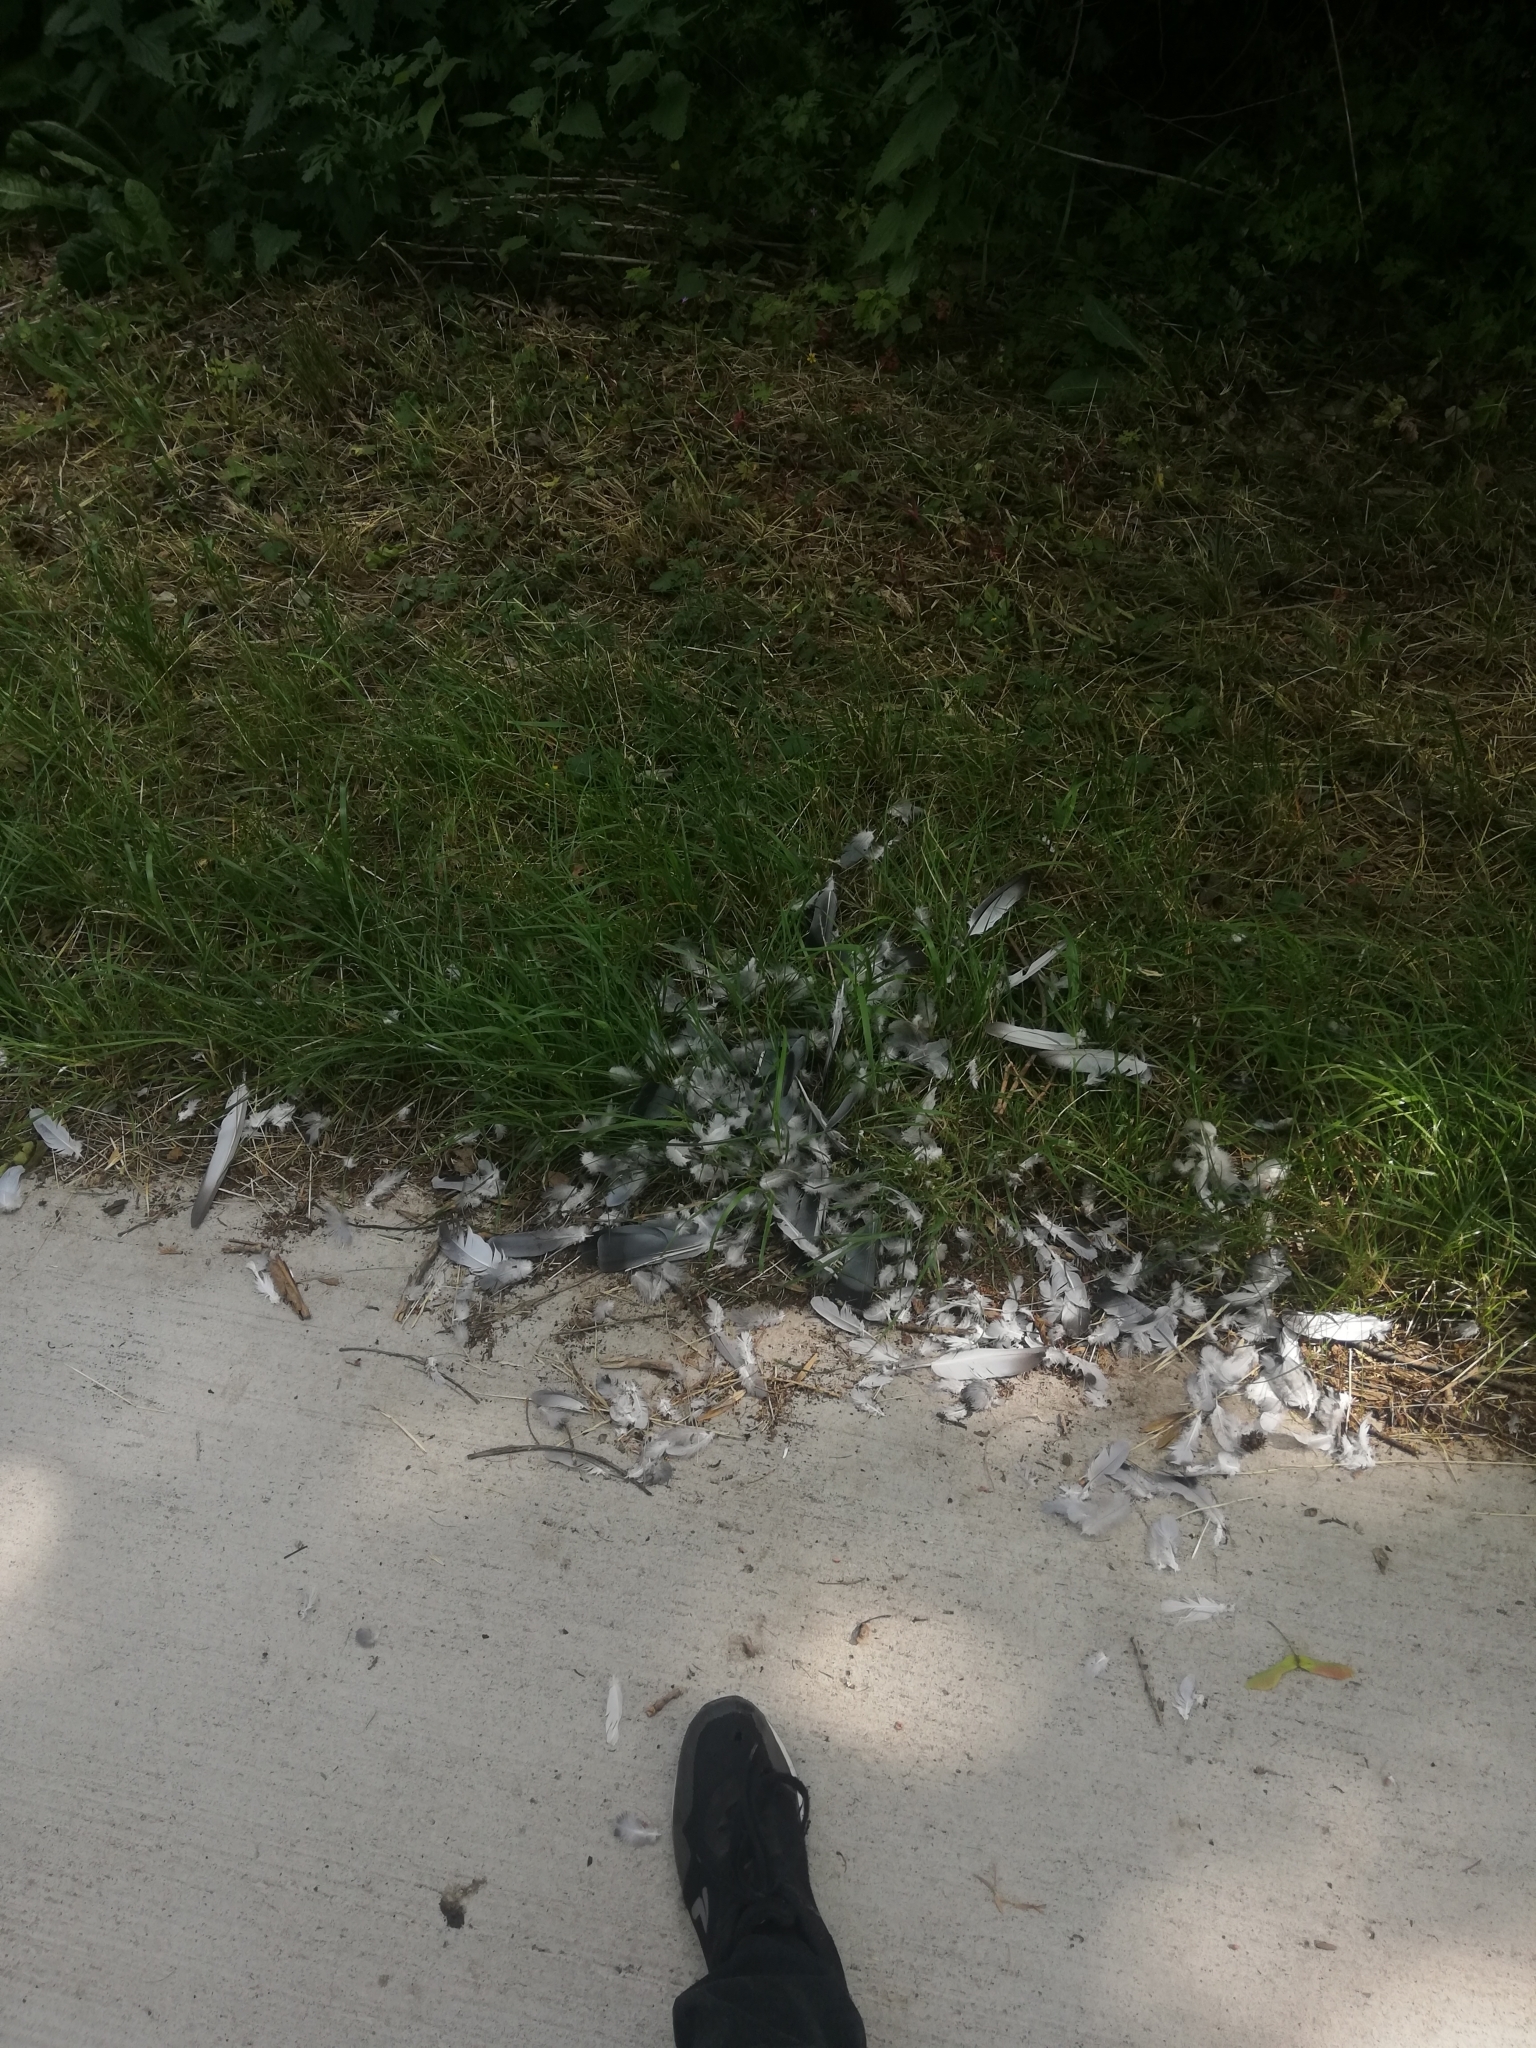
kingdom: Animalia
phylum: Chordata
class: Aves
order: Columbiformes
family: Columbidae
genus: Columba
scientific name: Columba livia
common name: Rock pigeon
